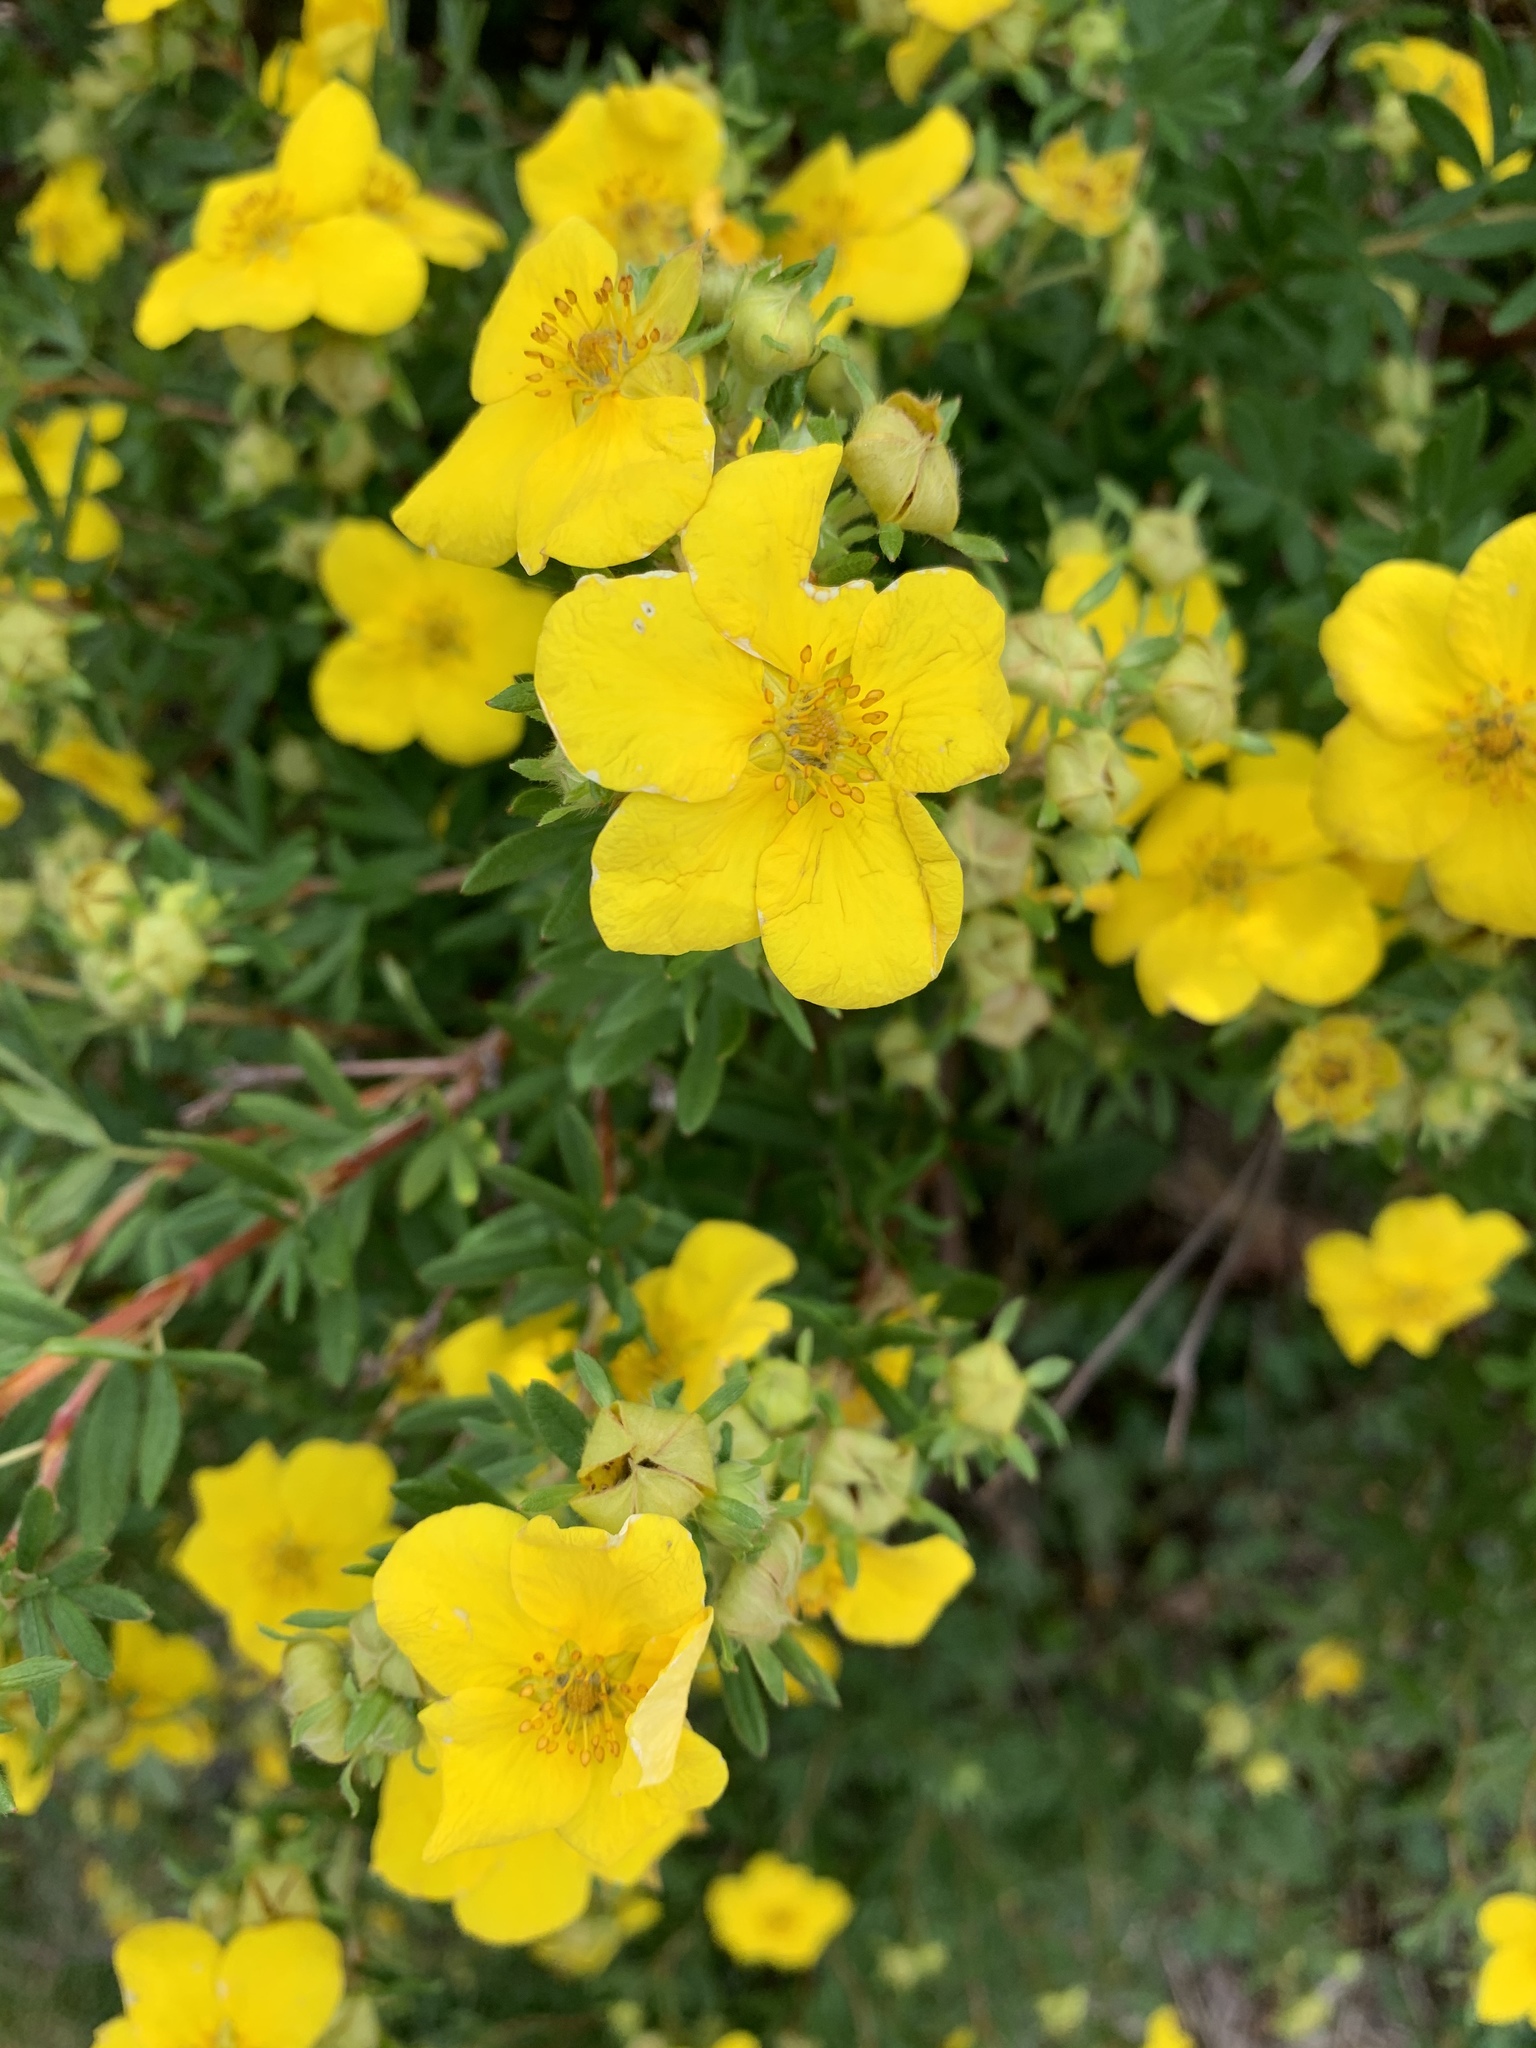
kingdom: Plantae
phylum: Tracheophyta
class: Magnoliopsida
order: Rosales
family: Rosaceae
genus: Dasiphora
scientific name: Dasiphora fruticosa
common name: Shrubby cinquefoil
